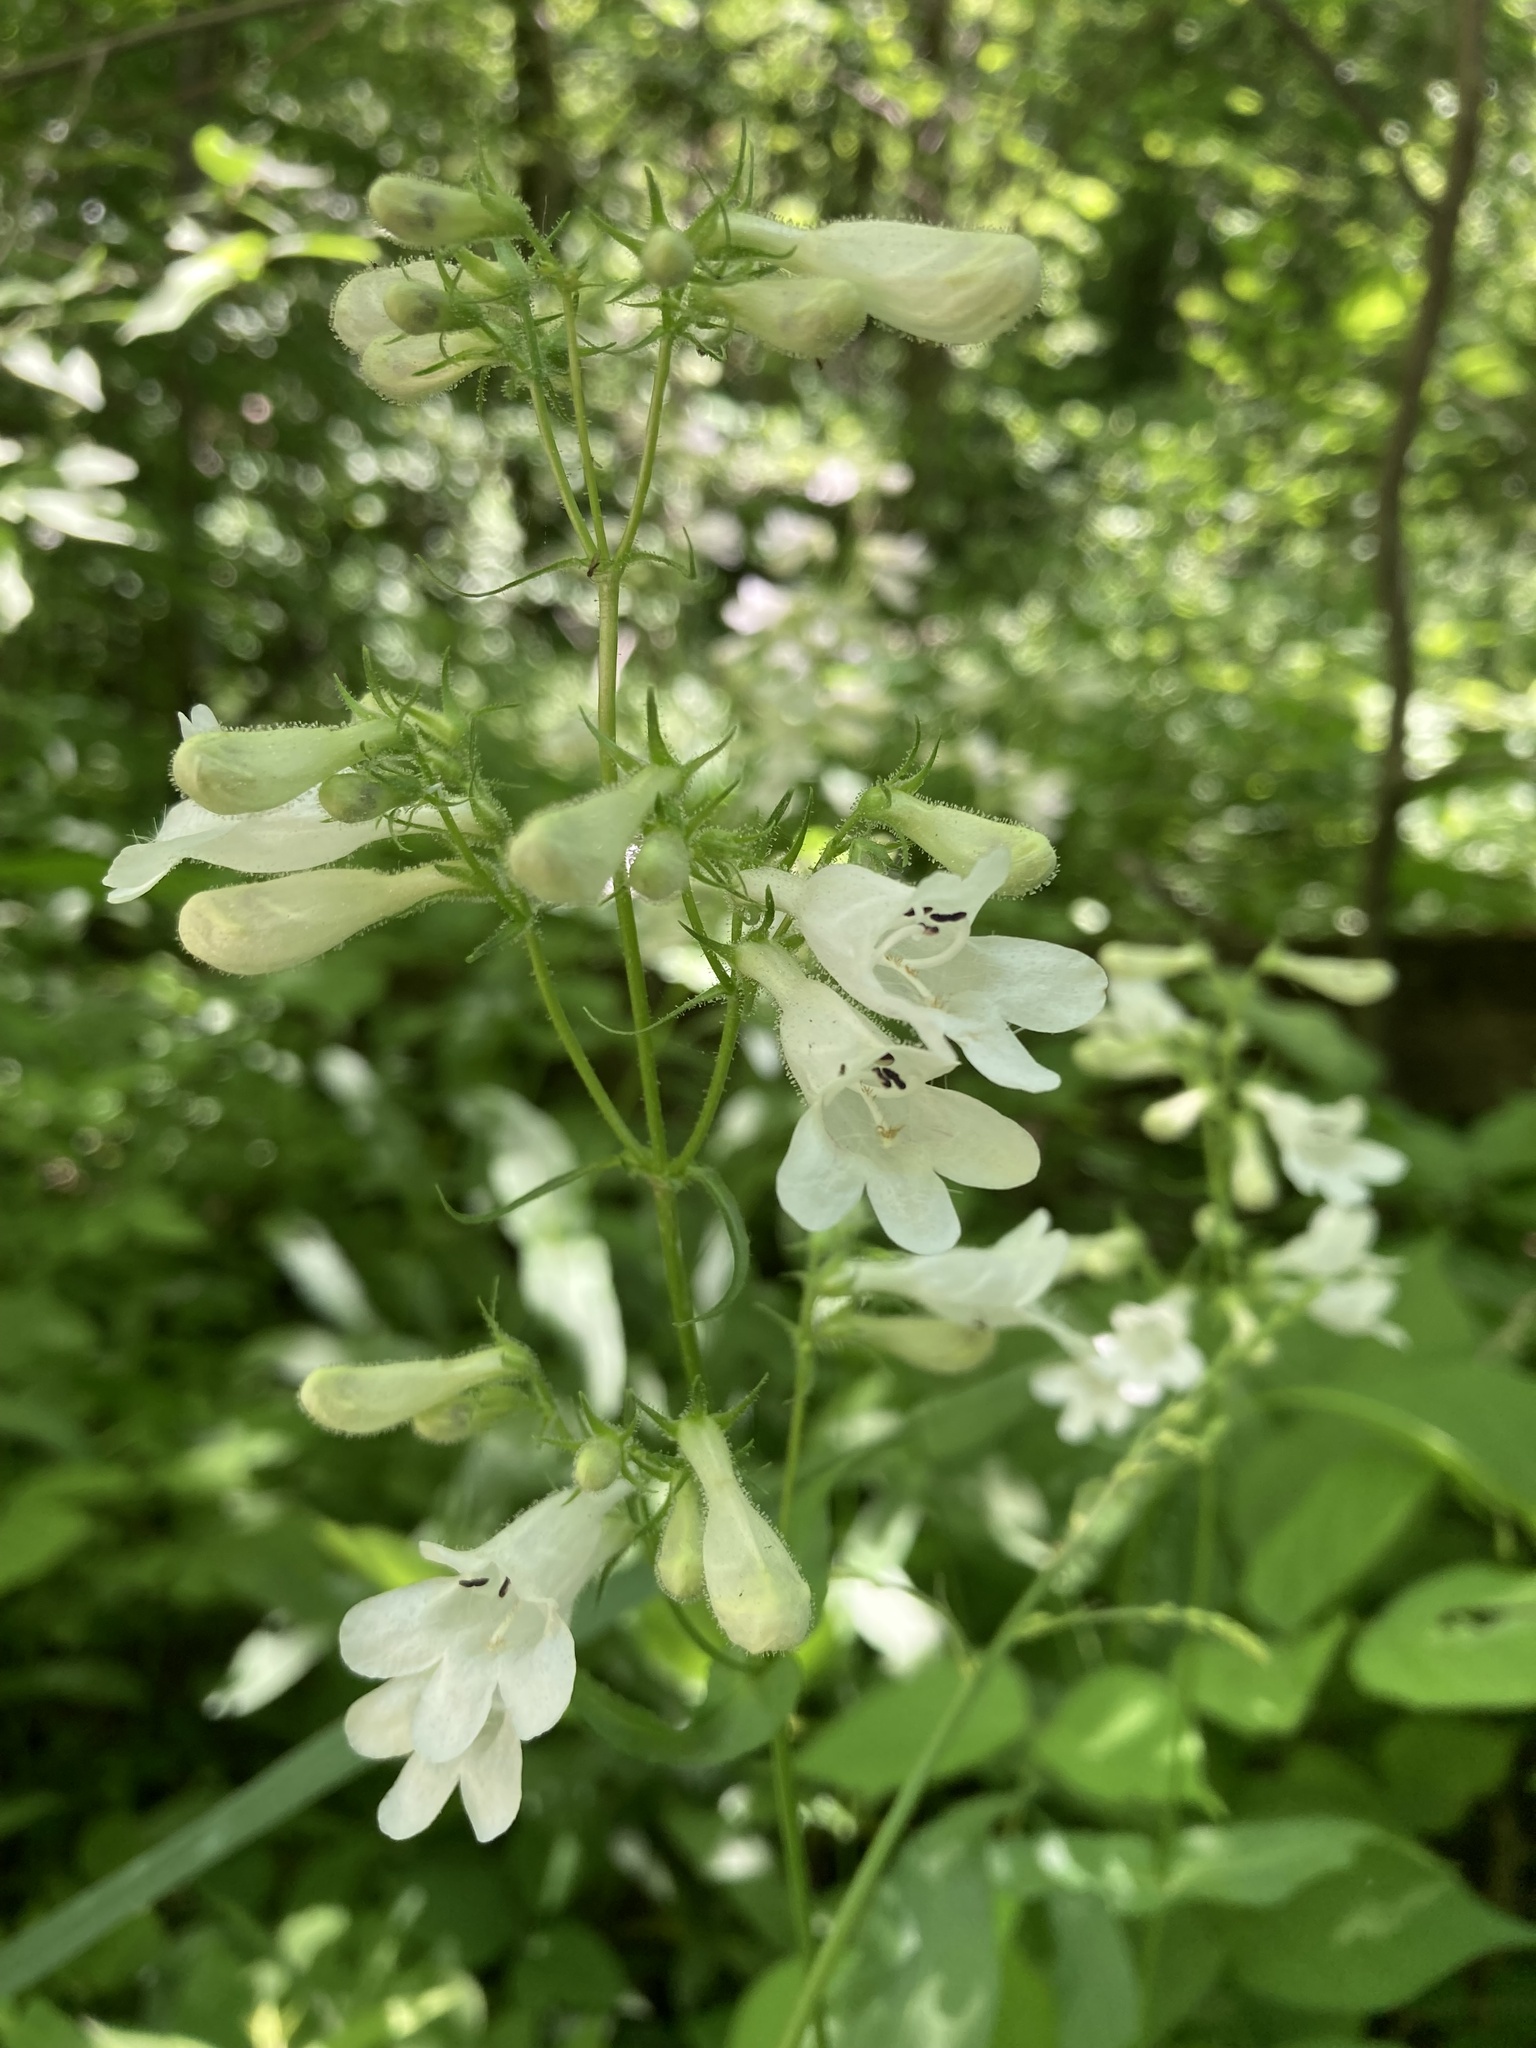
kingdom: Plantae
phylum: Tracheophyta
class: Magnoliopsida
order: Lamiales
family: Plantaginaceae
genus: Penstemon
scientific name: Penstemon digitalis
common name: Foxglove beardtongue
